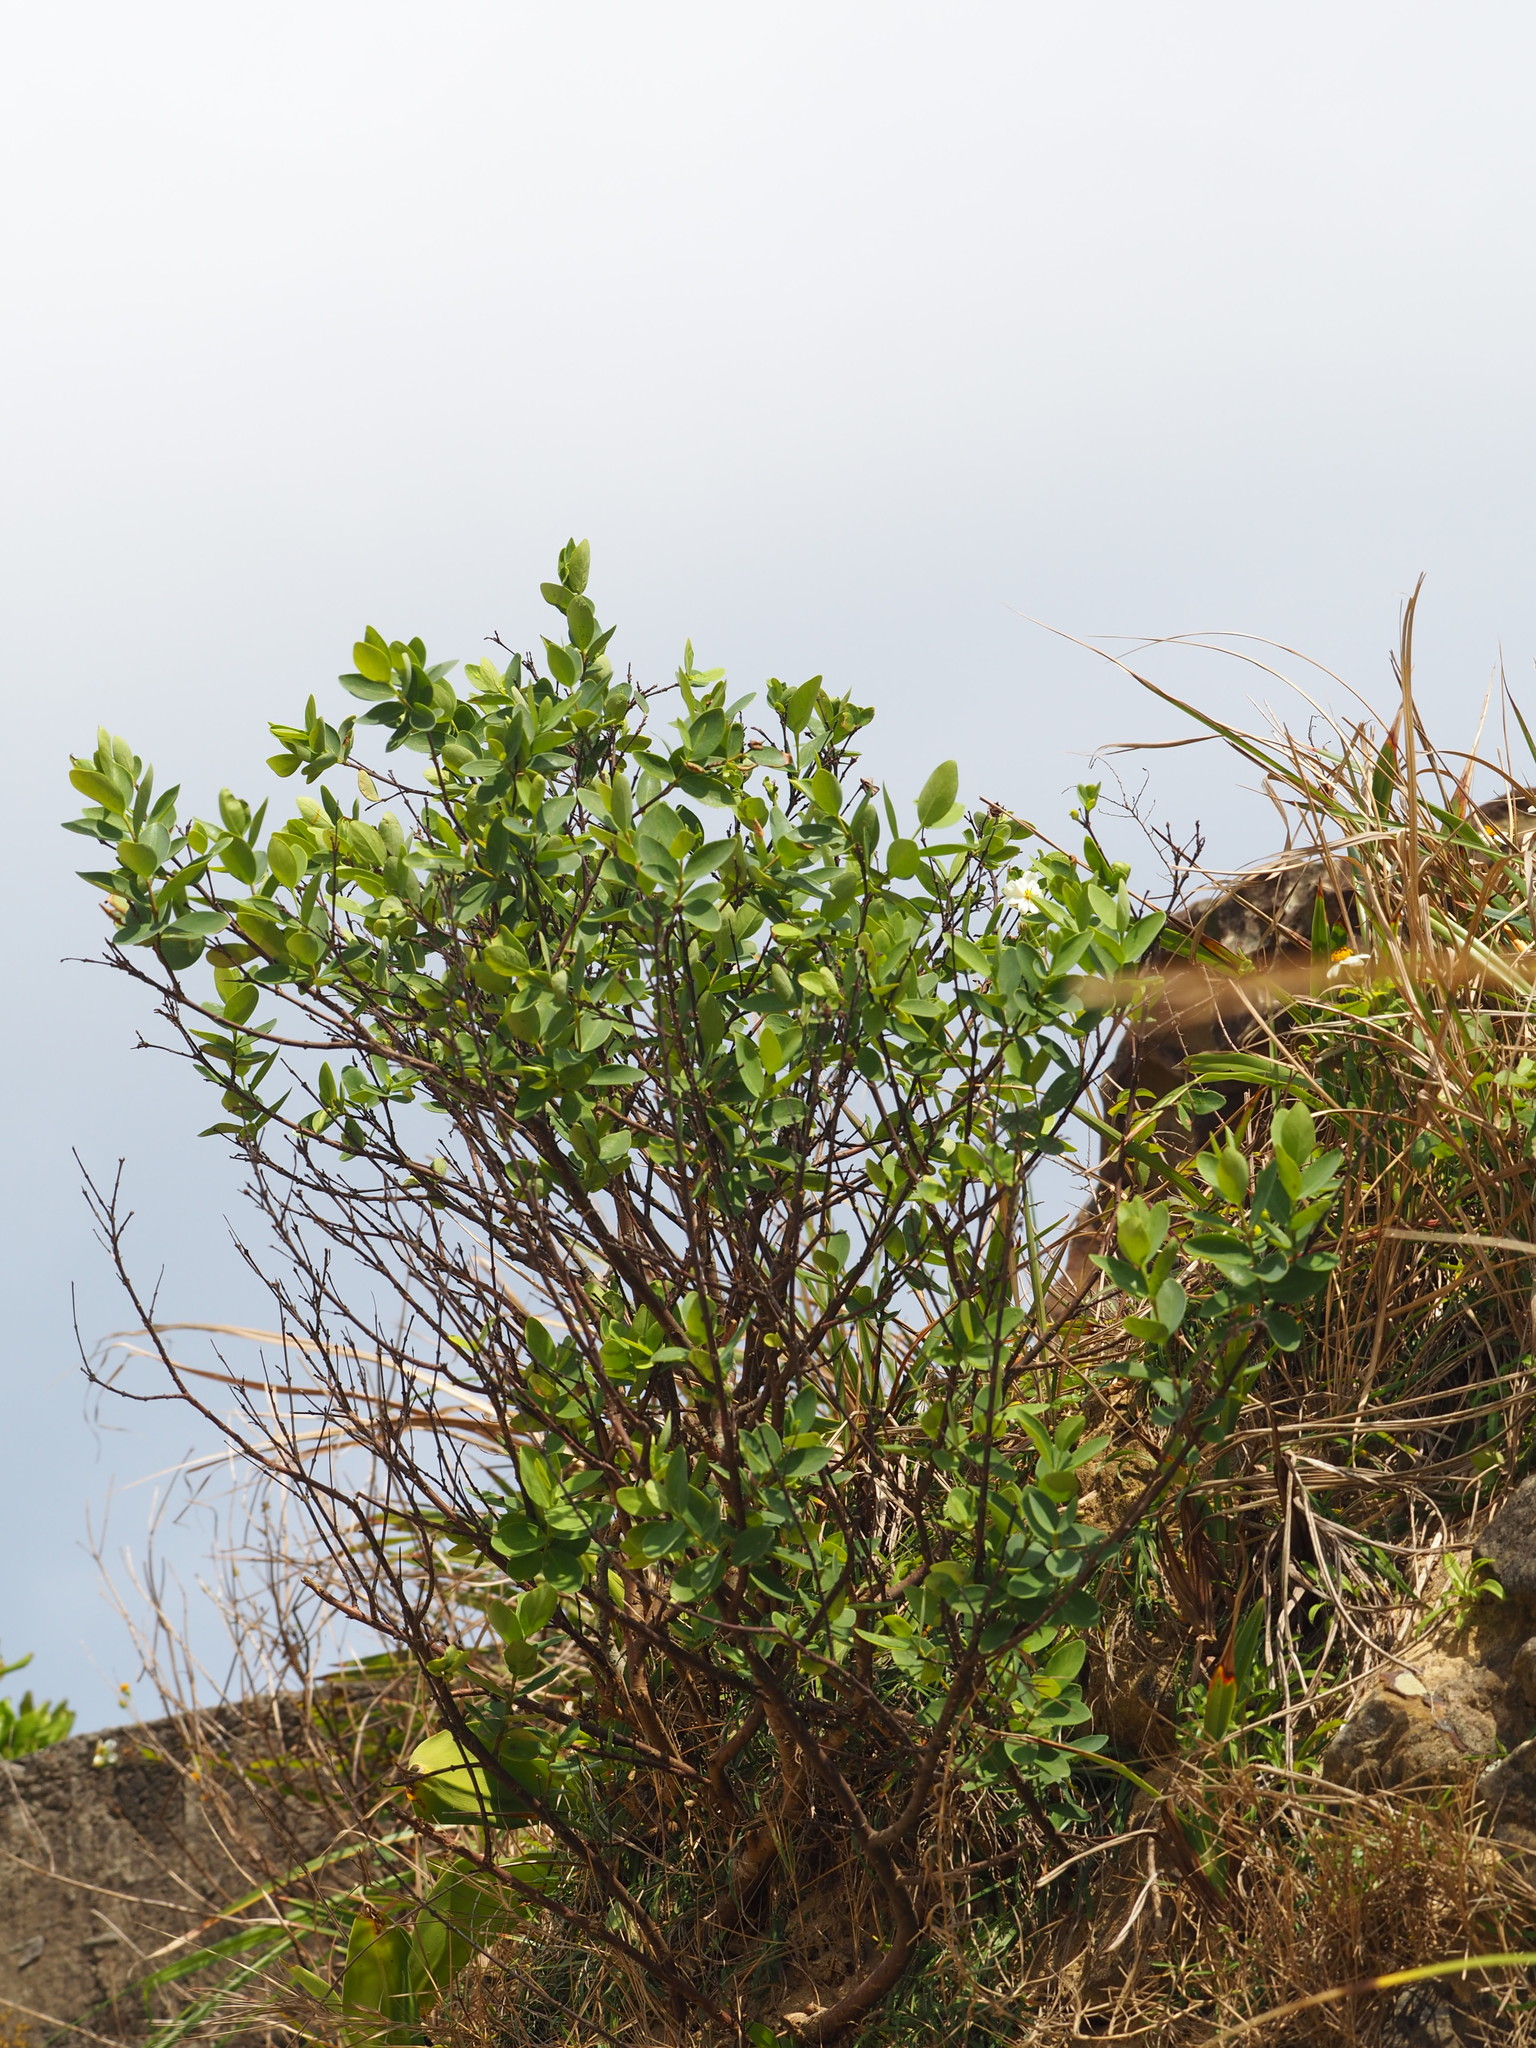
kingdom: Plantae
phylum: Tracheophyta
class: Magnoliopsida
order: Malvales
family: Thymelaeaceae
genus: Wikstroemia
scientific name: Wikstroemia indica
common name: Tiebush
